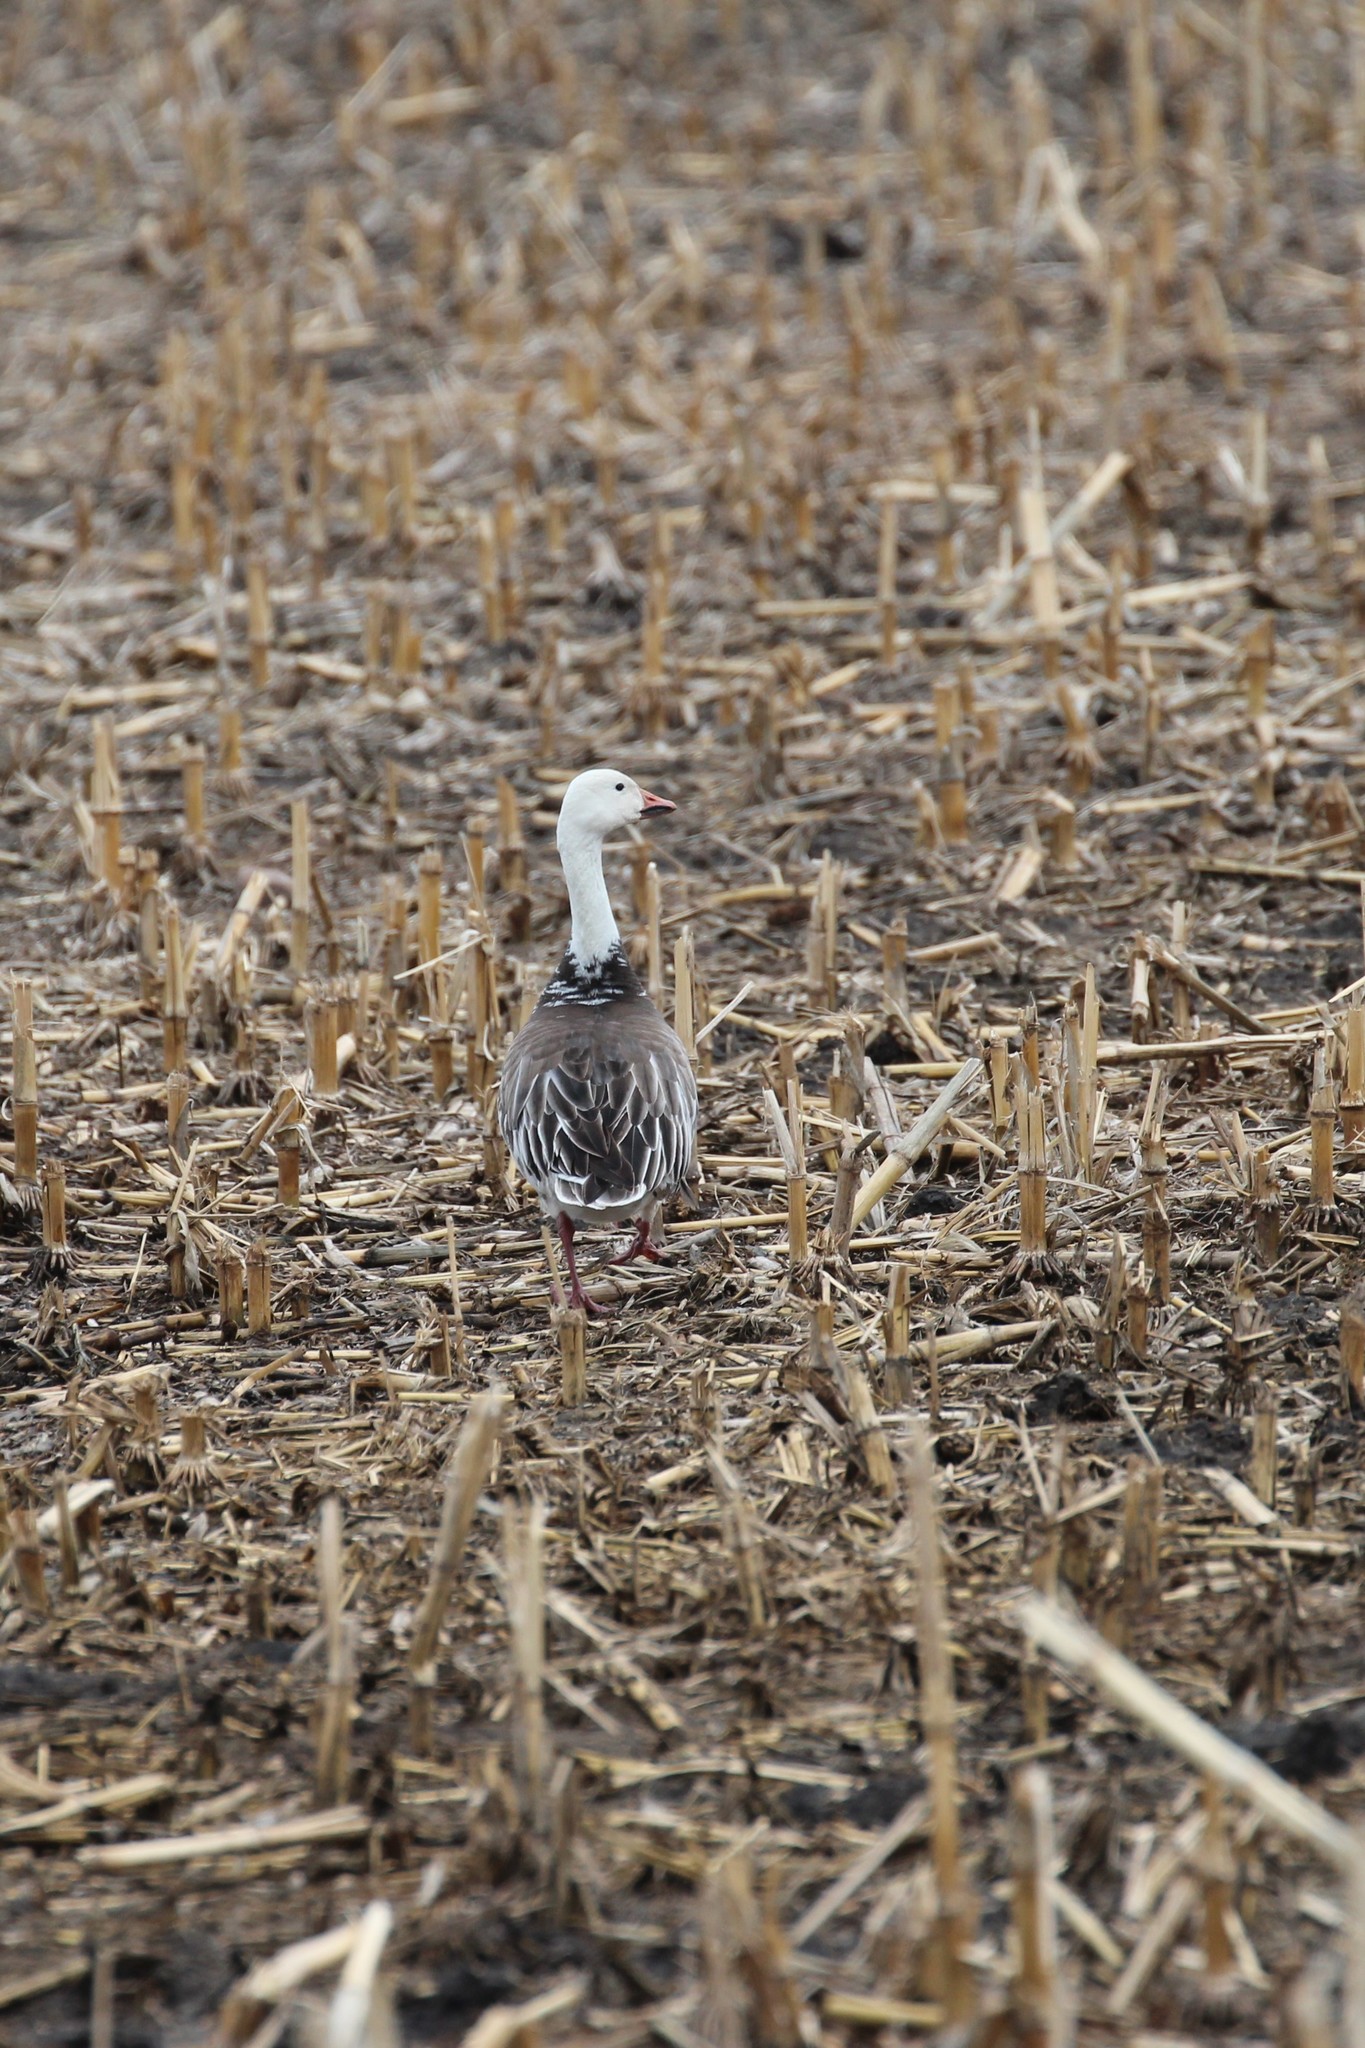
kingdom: Animalia
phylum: Chordata
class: Aves
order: Anseriformes
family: Anatidae
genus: Anser
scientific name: Anser caerulescens
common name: Snow goose
